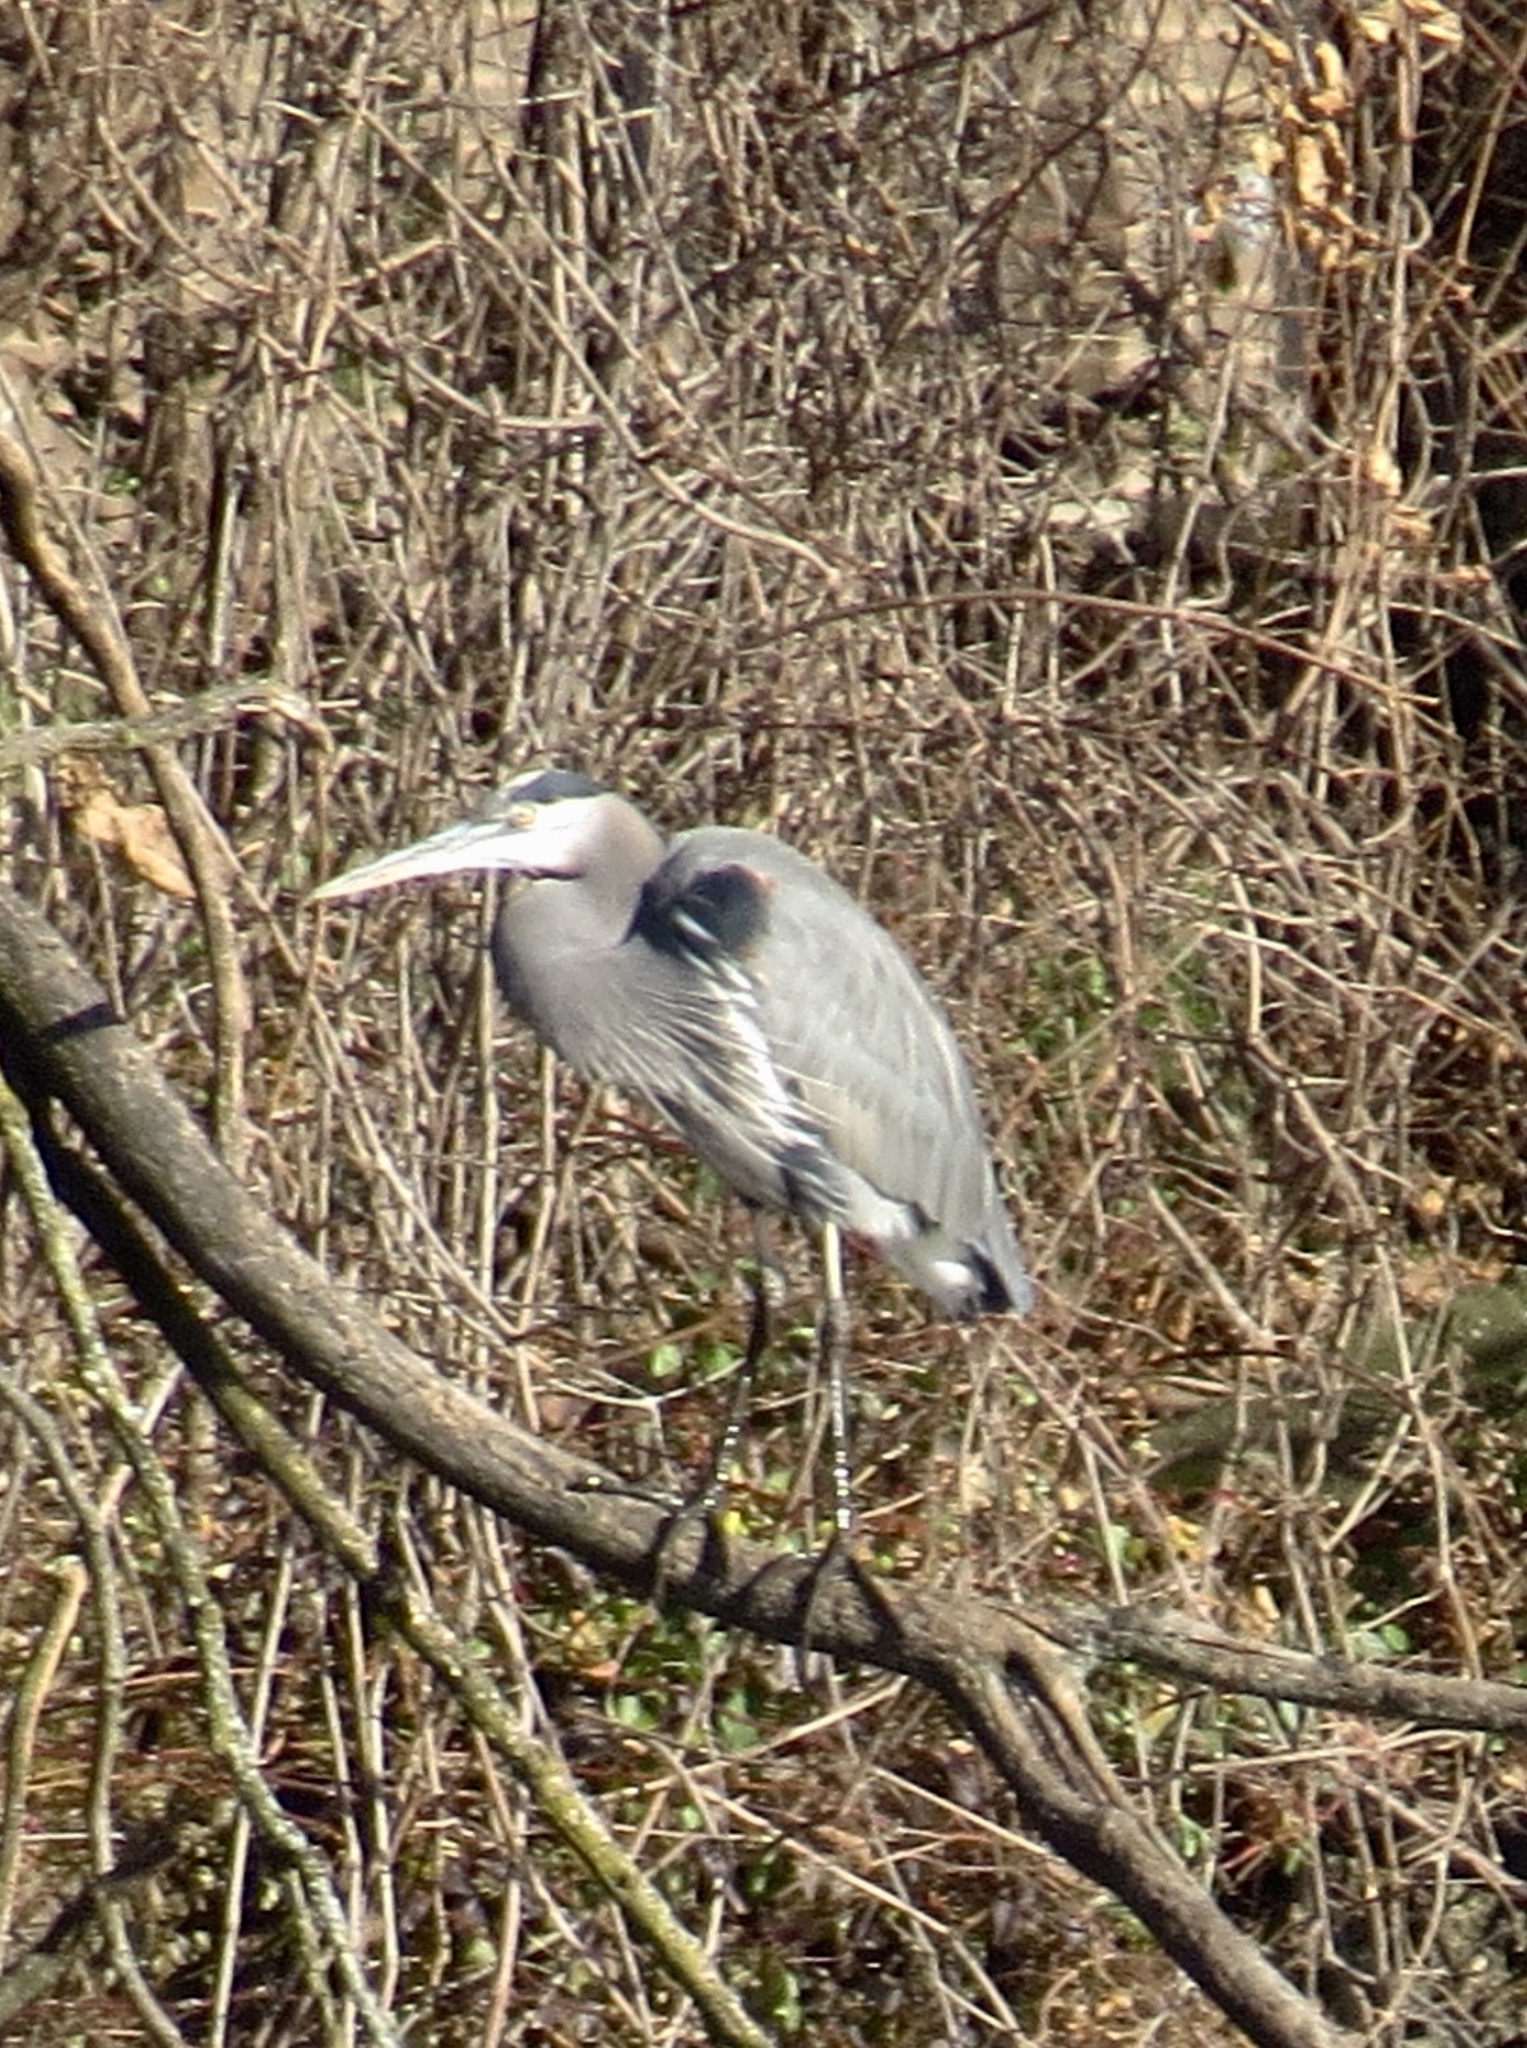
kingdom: Animalia
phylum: Chordata
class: Aves
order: Pelecaniformes
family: Ardeidae
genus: Ardea
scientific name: Ardea herodias
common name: Great blue heron
